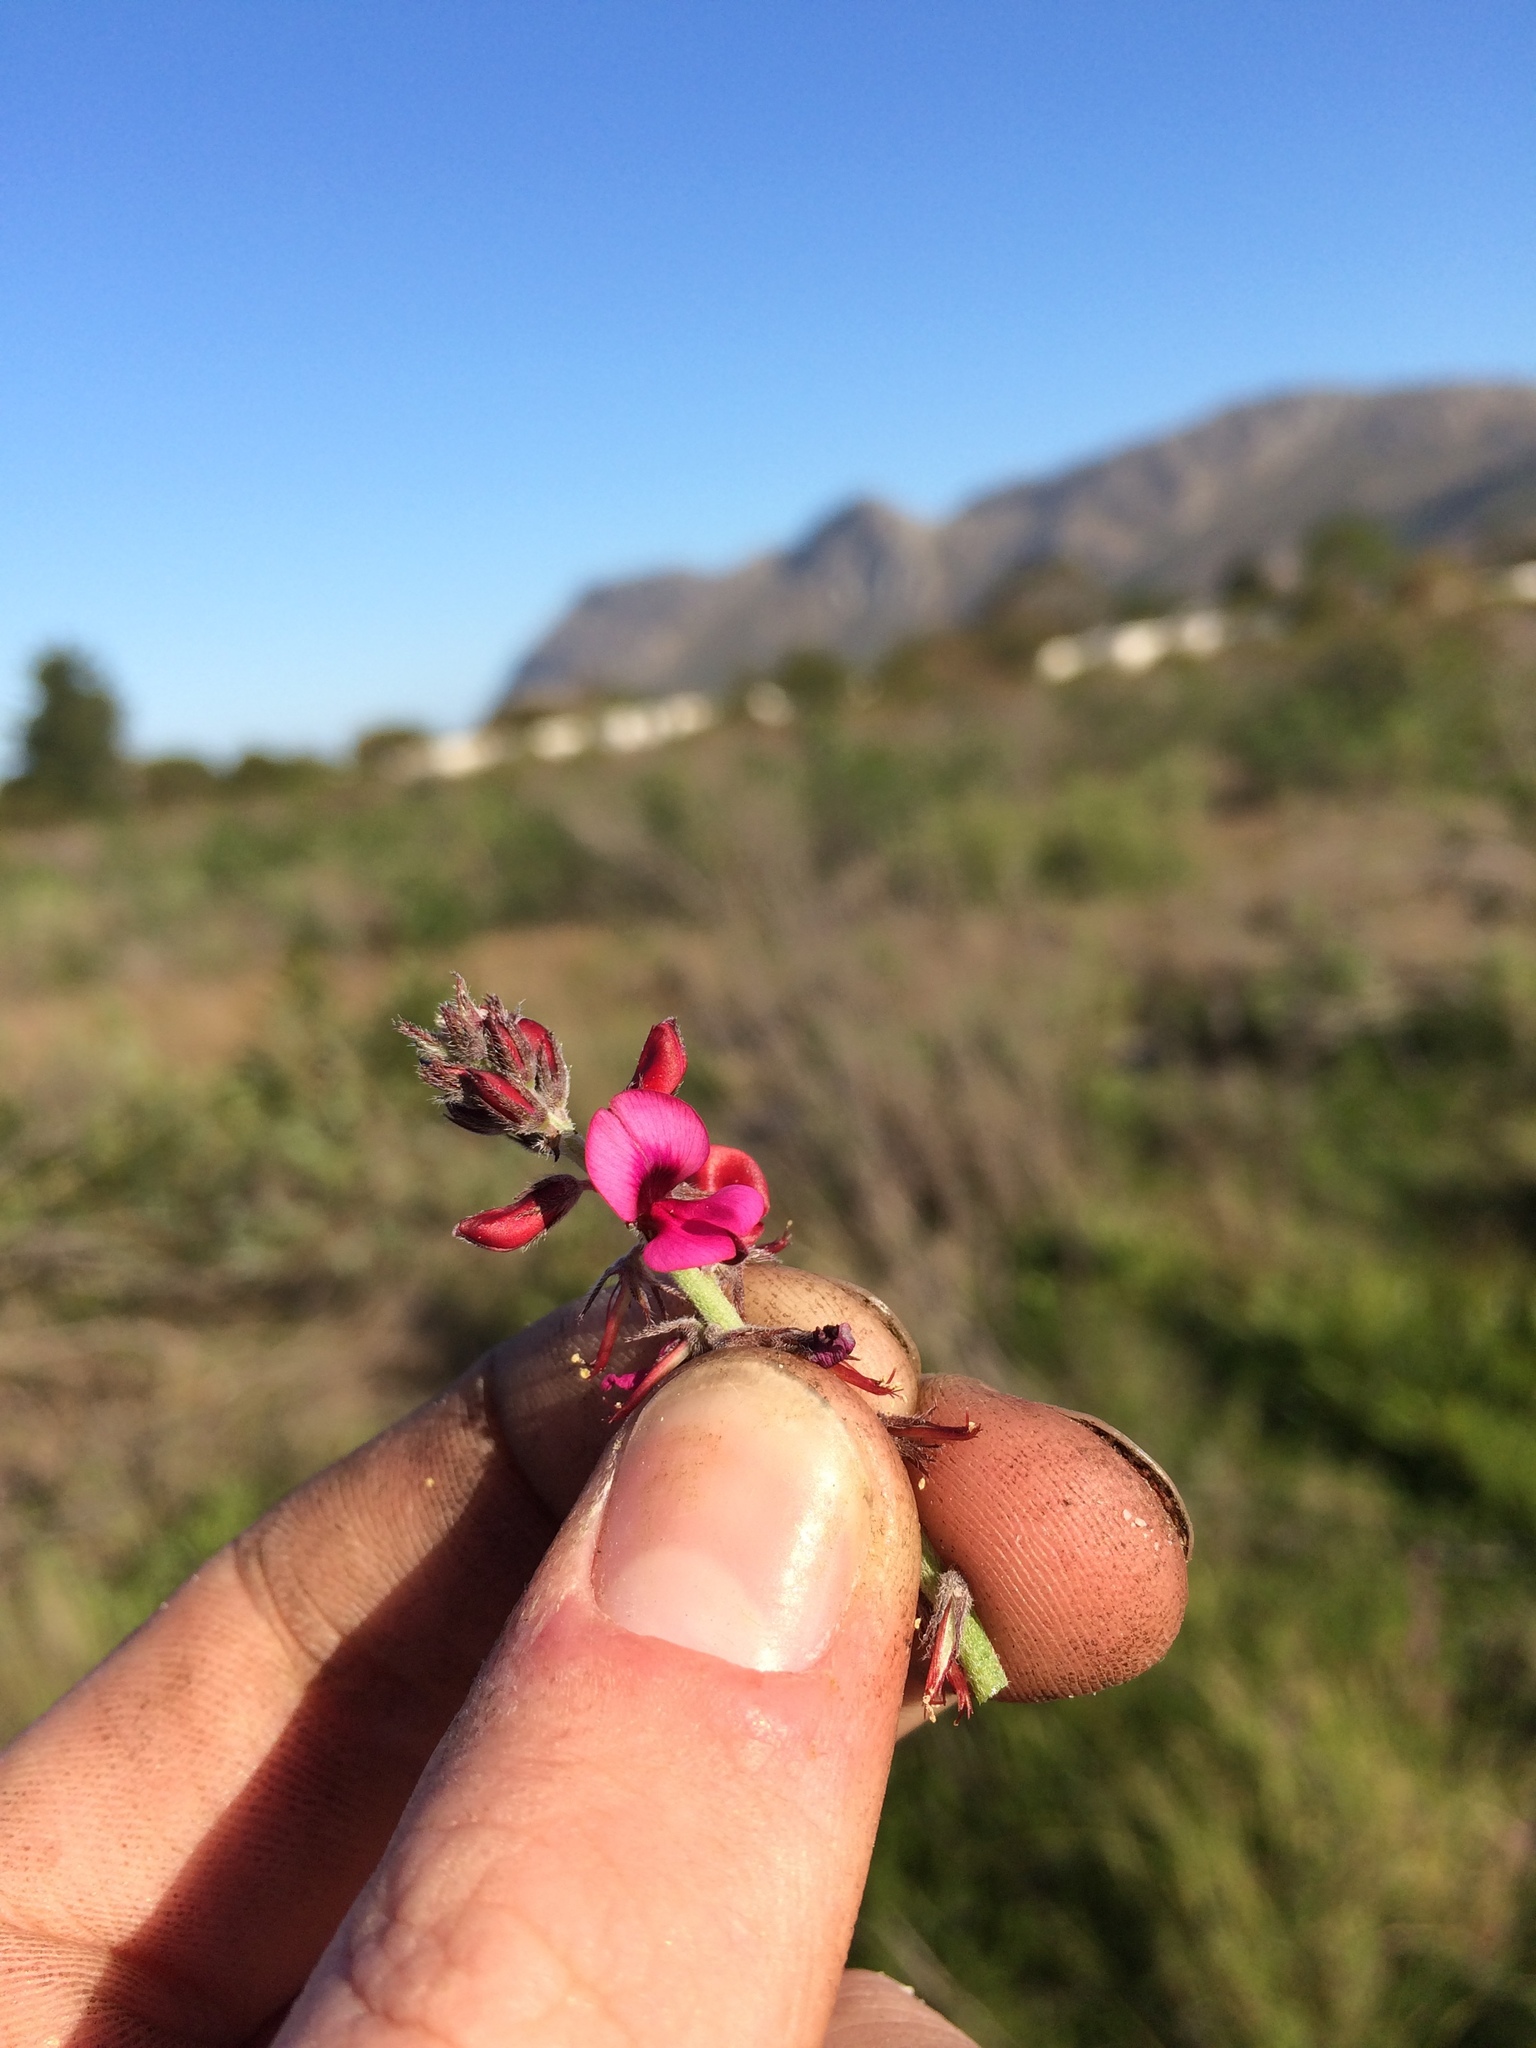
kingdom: Plantae
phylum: Tracheophyta
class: Magnoliopsida
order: Fabales
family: Fabaceae
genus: Indigofera
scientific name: Indigofera incana
